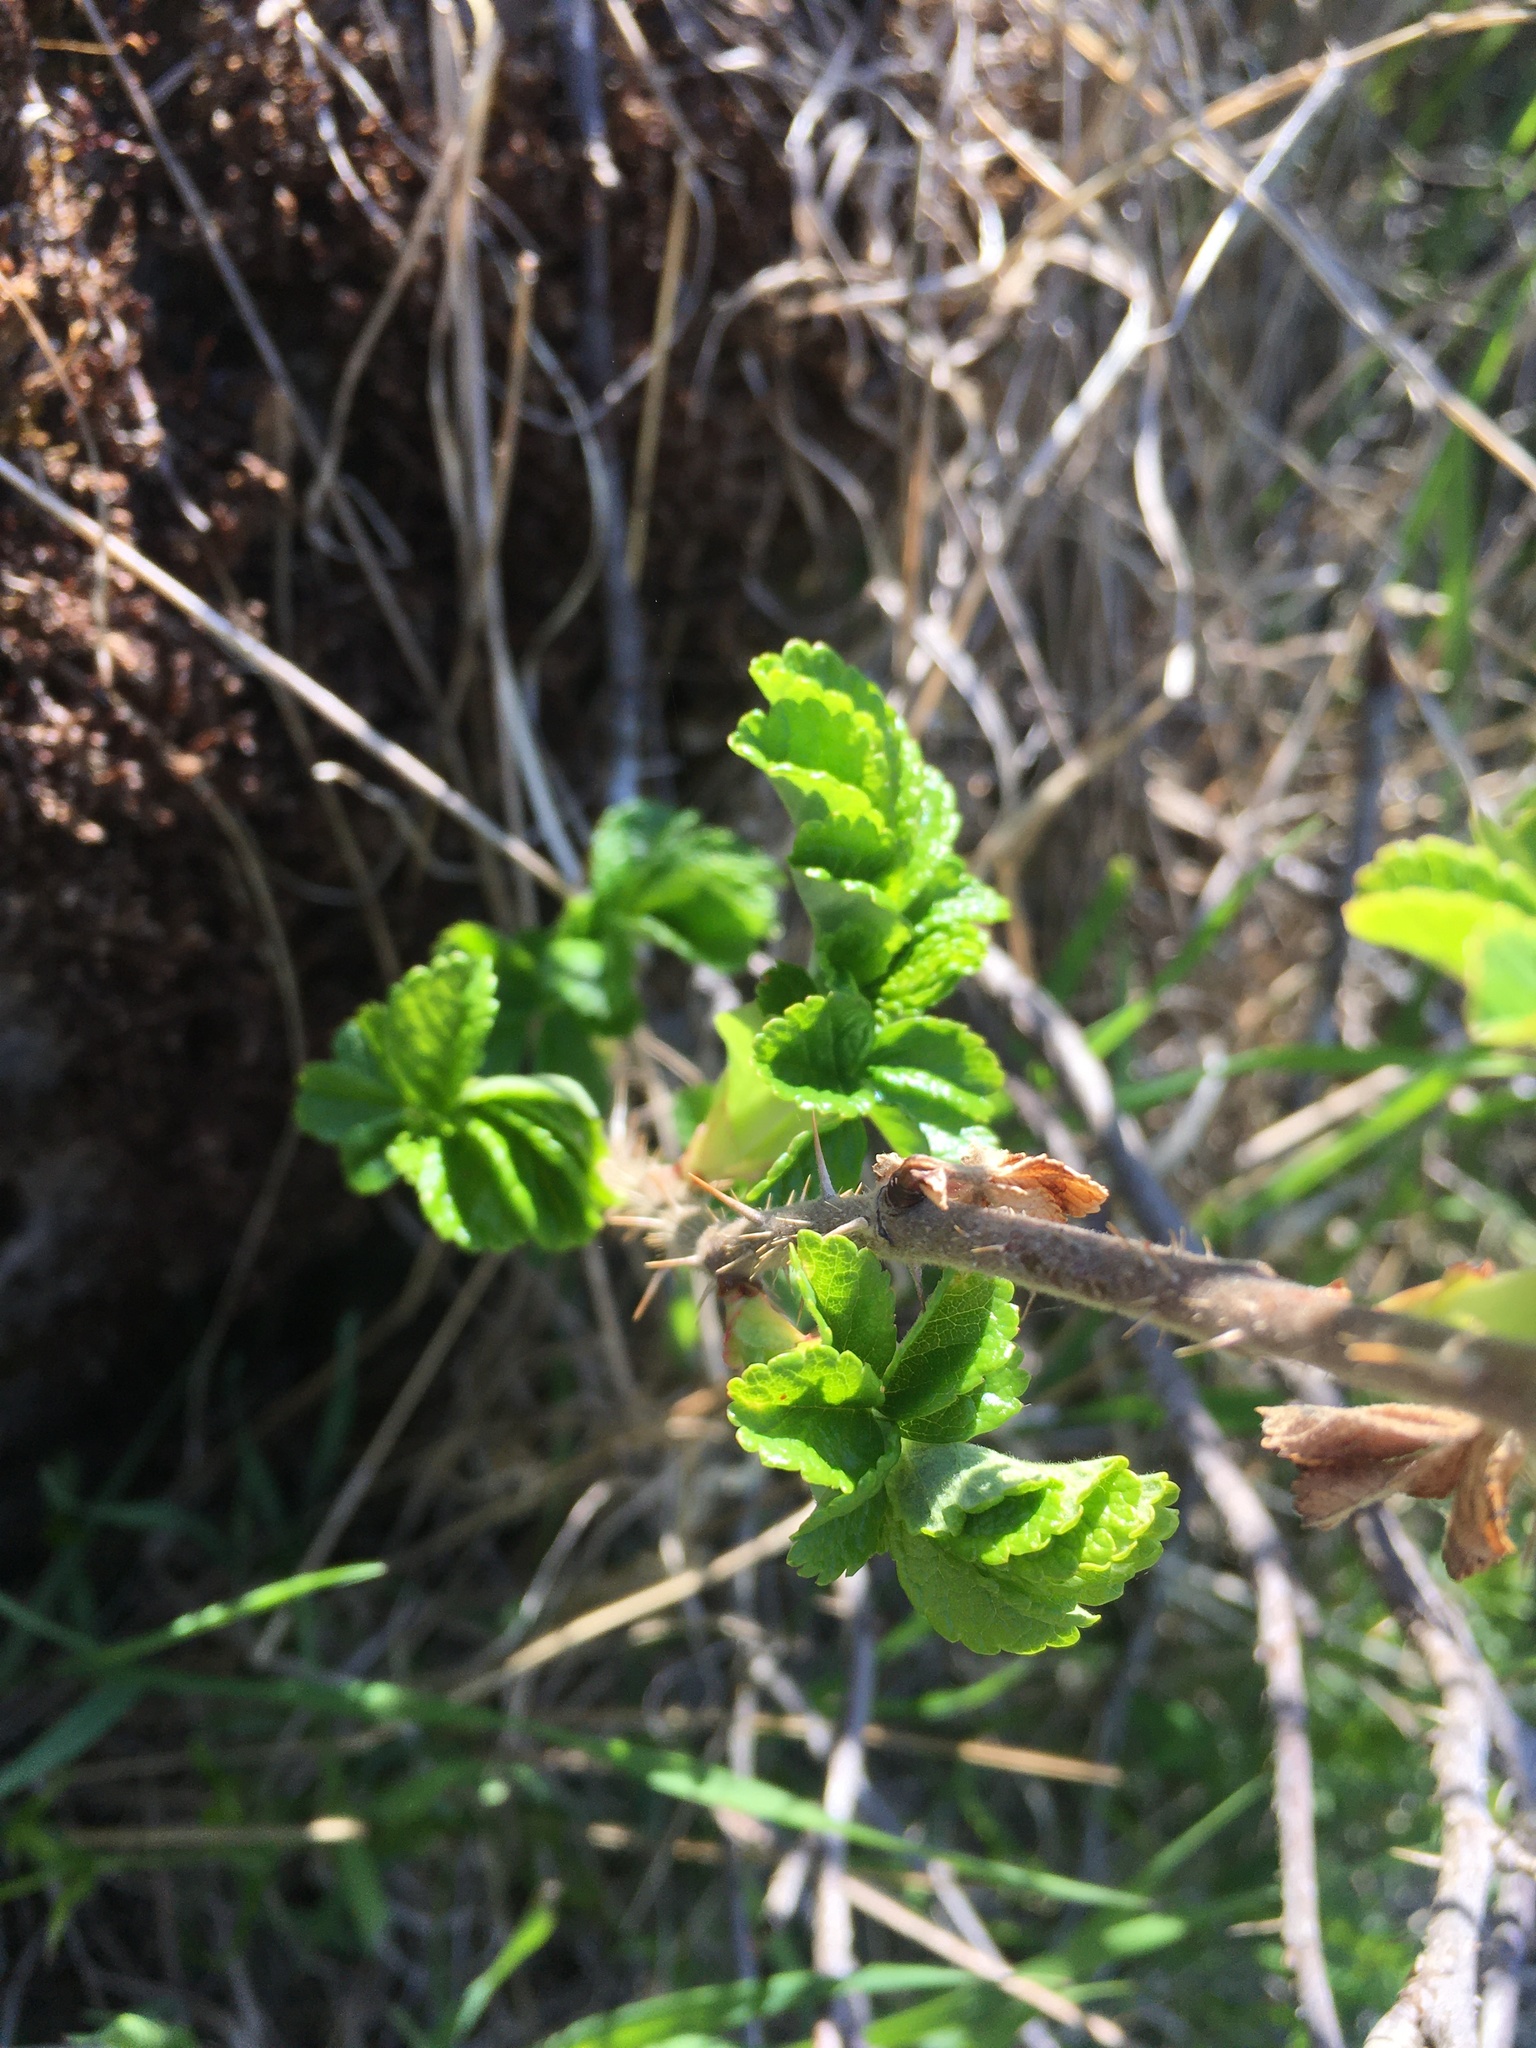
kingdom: Plantae
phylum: Tracheophyta
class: Magnoliopsida
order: Rosales
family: Rosaceae
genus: Rosa
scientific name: Rosa rugosa
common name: Japanese rose
